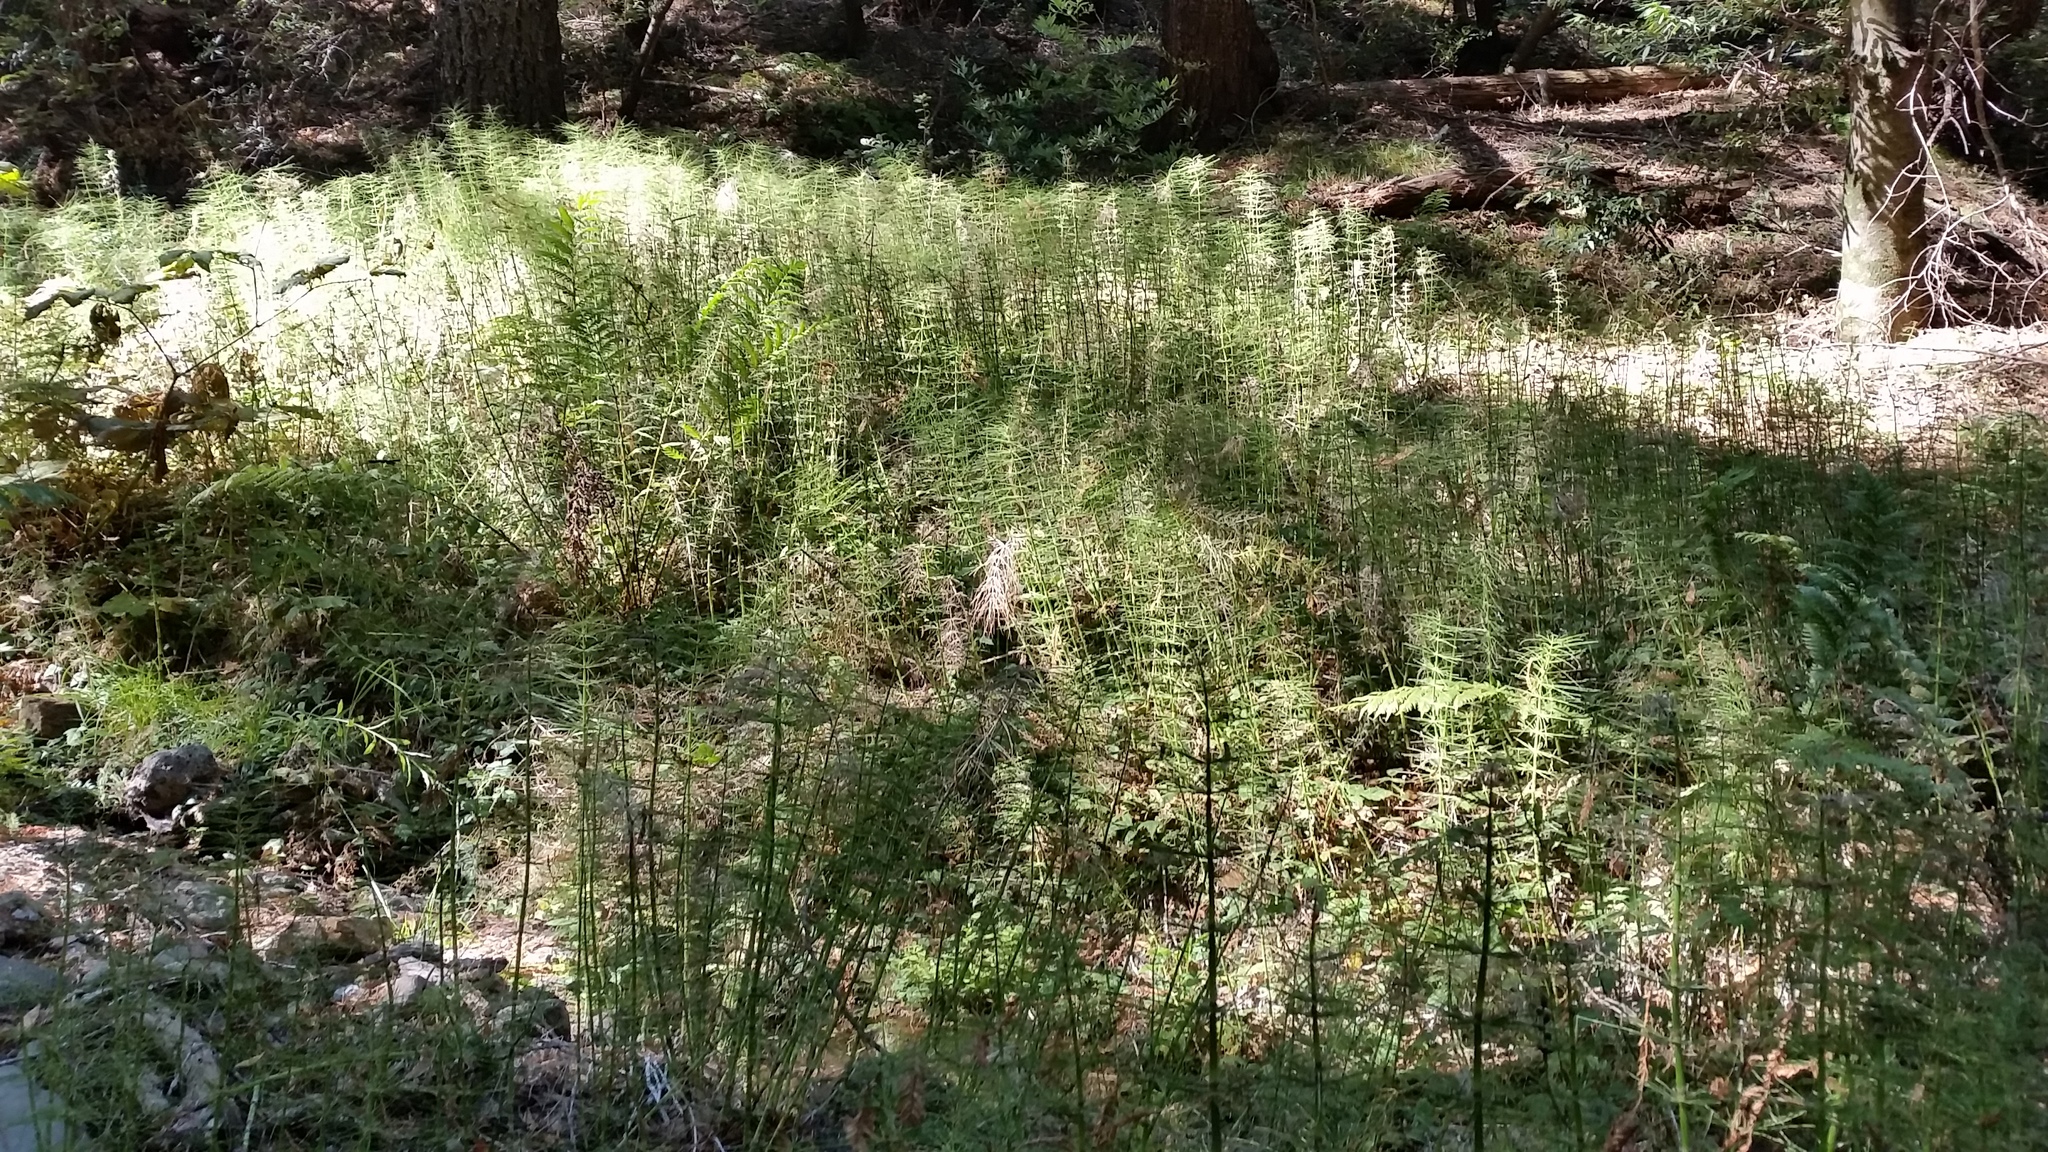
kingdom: Plantae
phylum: Tracheophyta
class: Polypodiopsida
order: Equisetales
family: Equisetaceae
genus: Equisetum
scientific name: Equisetum braunii
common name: Braun's horsetail
